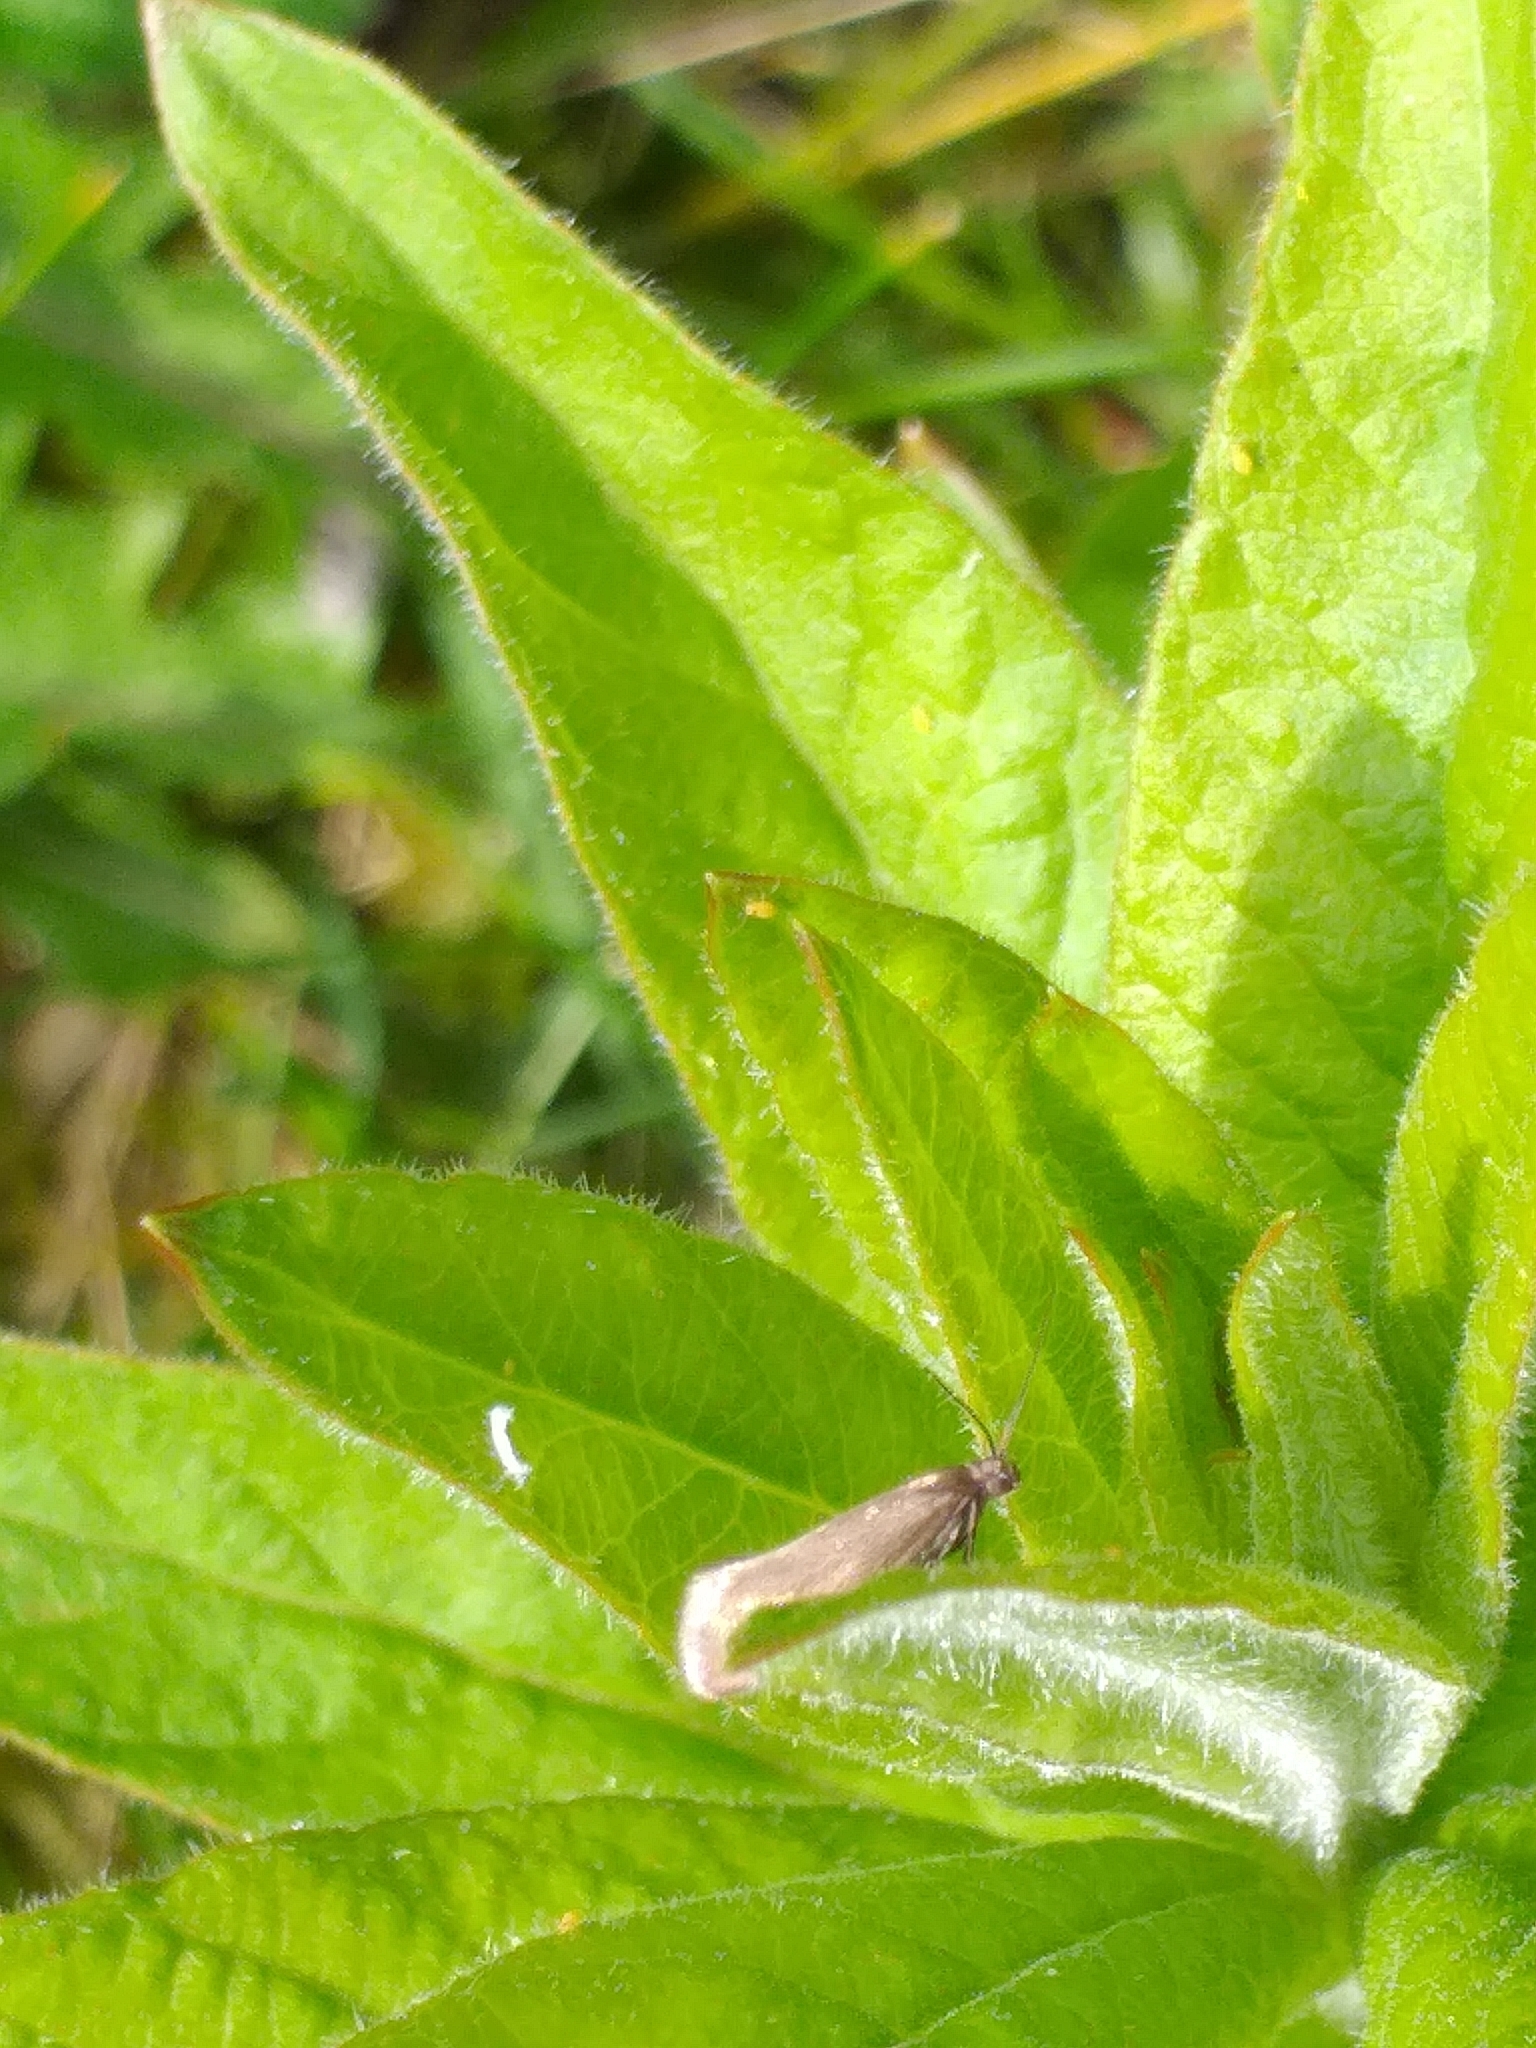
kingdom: Animalia
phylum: Arthropoda
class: Insecta
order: Lepidoptera
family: Micropterigidae
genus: Micropterix
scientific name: Micropterix calthella
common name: Plain gold
